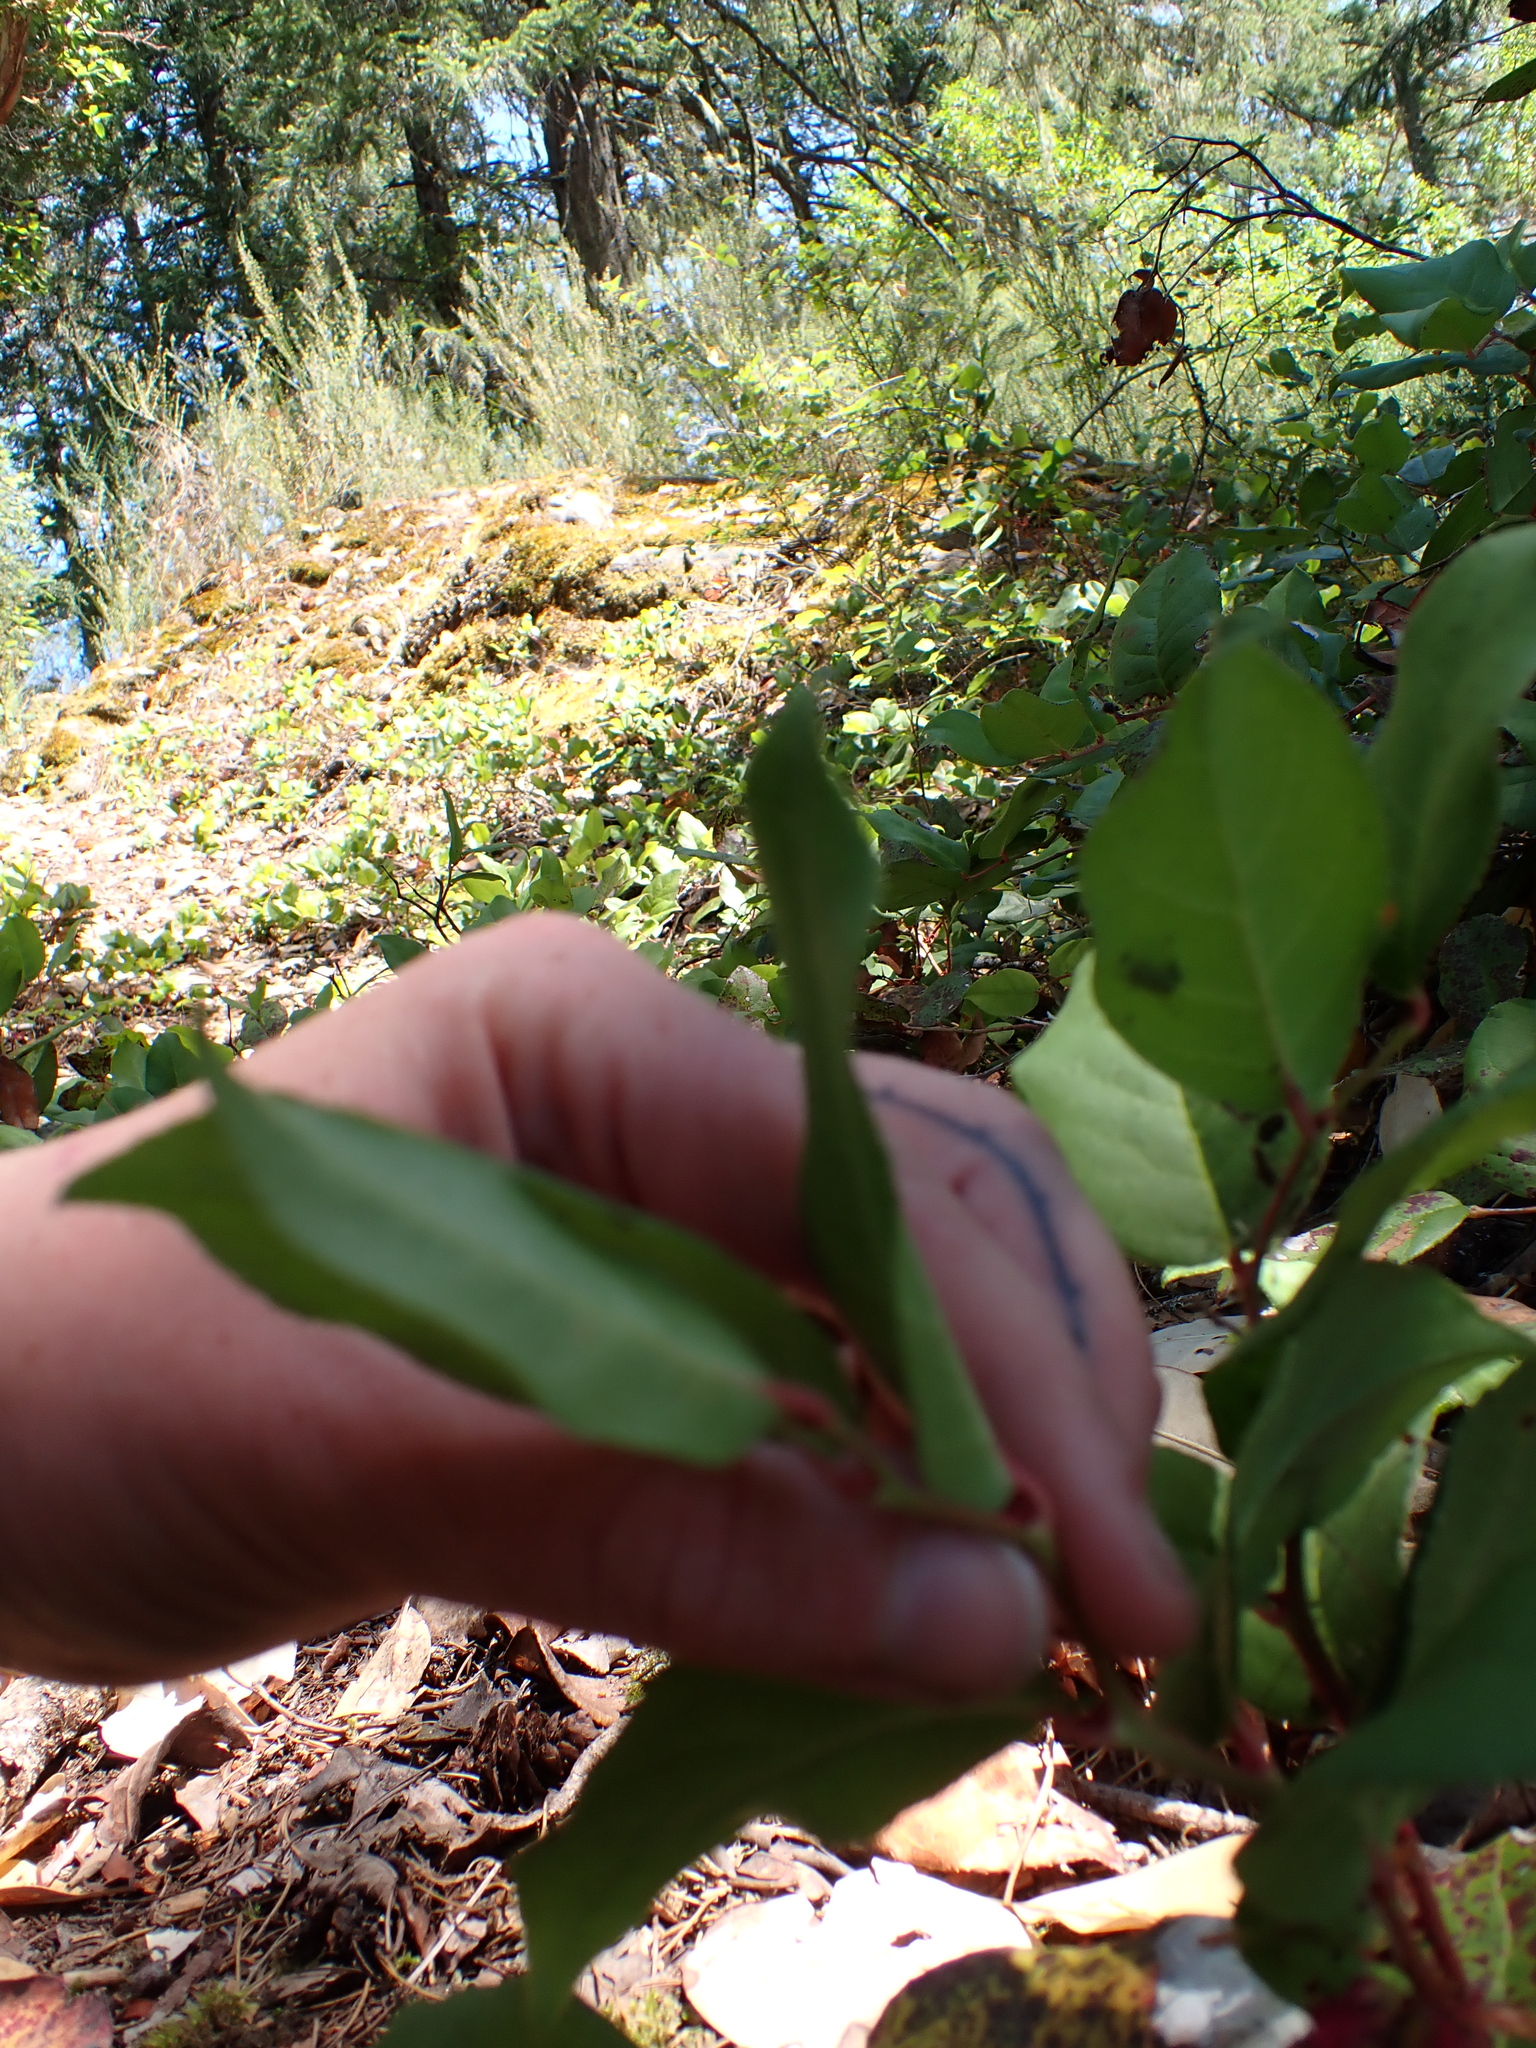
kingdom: Plantae
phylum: Tracheophyta
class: Magnoliopsida
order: Ericales
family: Ericaceae
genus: Gaultheria
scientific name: Gaultheria shallon
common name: Shallon
